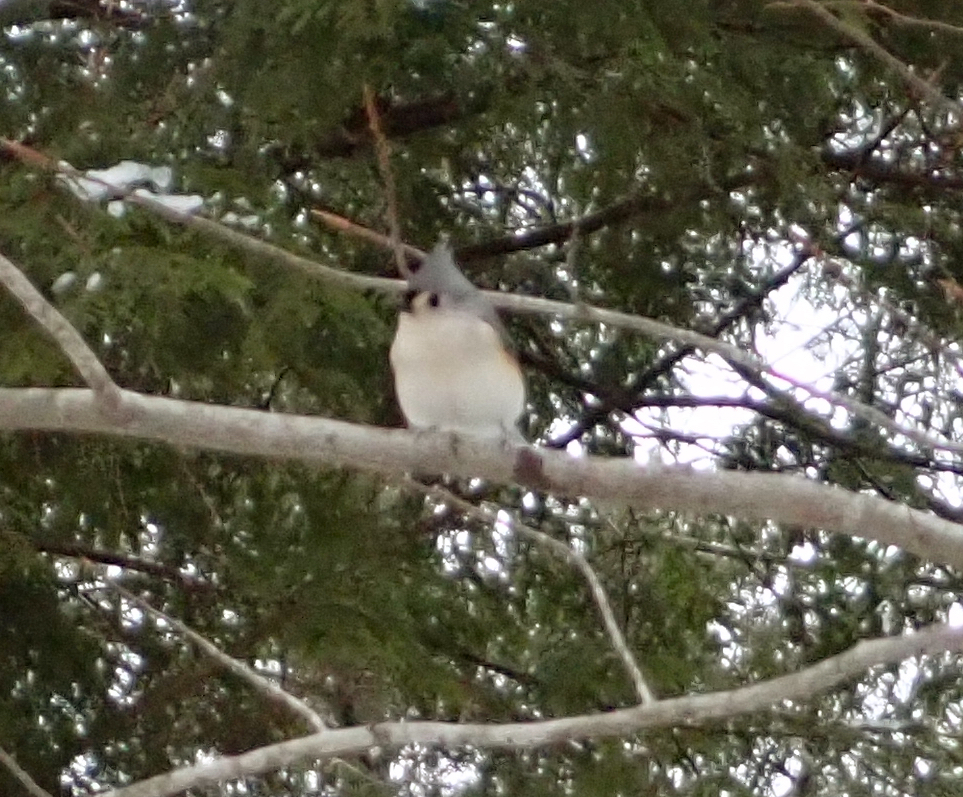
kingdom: Animalia
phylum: Chordata
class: Aves
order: Passeriformes
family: Paridae
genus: Baeolophus
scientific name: Baeolophus bicolor
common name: Tufted titmouse
